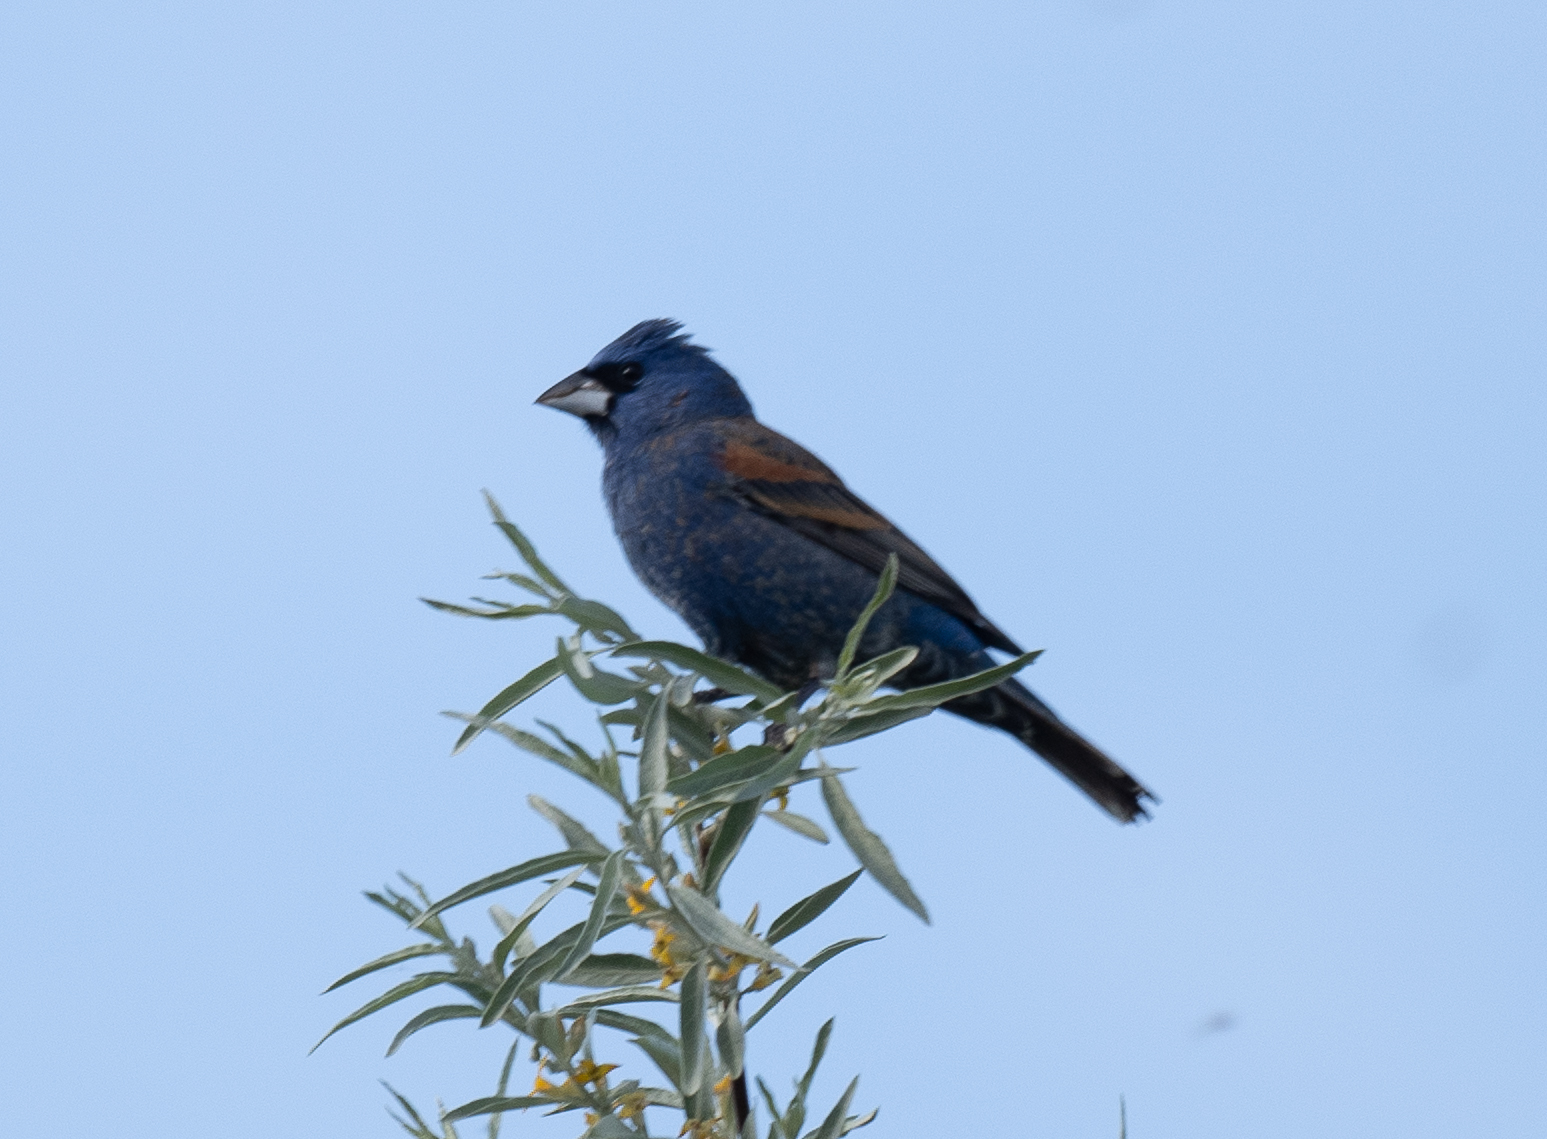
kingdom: Animalia
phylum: Chordata
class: Aves
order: Passeriformes
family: Cardinalidae
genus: Passerina
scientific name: Passerina caerulea
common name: Blue grosbeak
